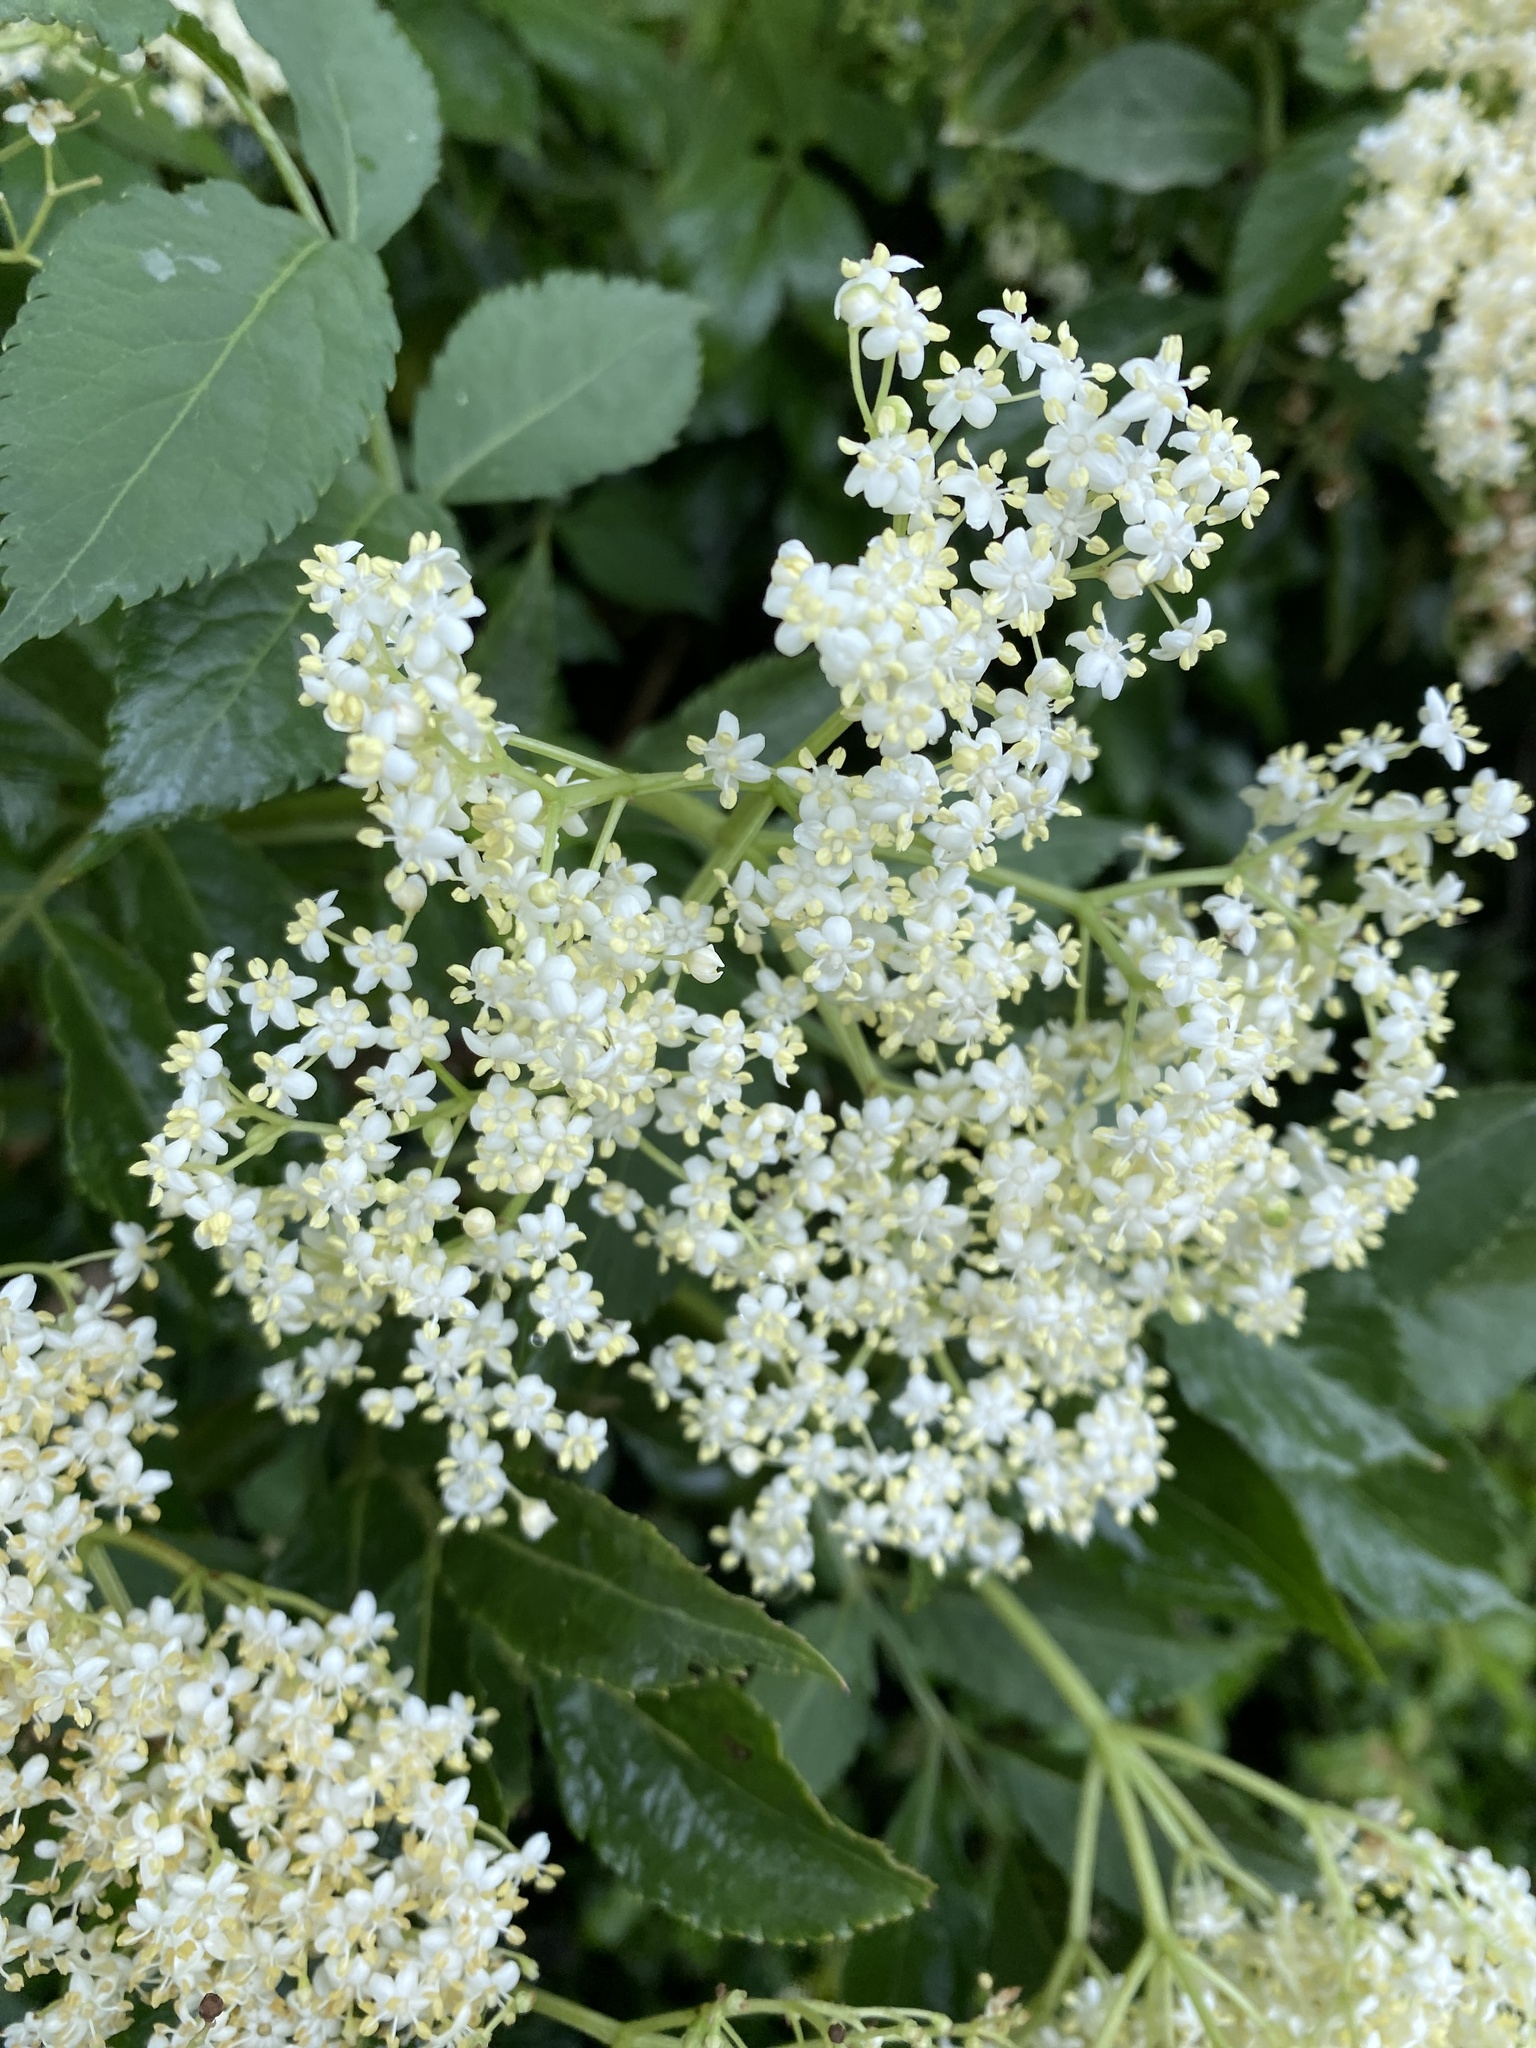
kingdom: Plantae
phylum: Tracheophyta
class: Magnoliopsida
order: Dipsacales
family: Viburnaceae
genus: Sambucus
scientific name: Sambucus nigra
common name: Elder
